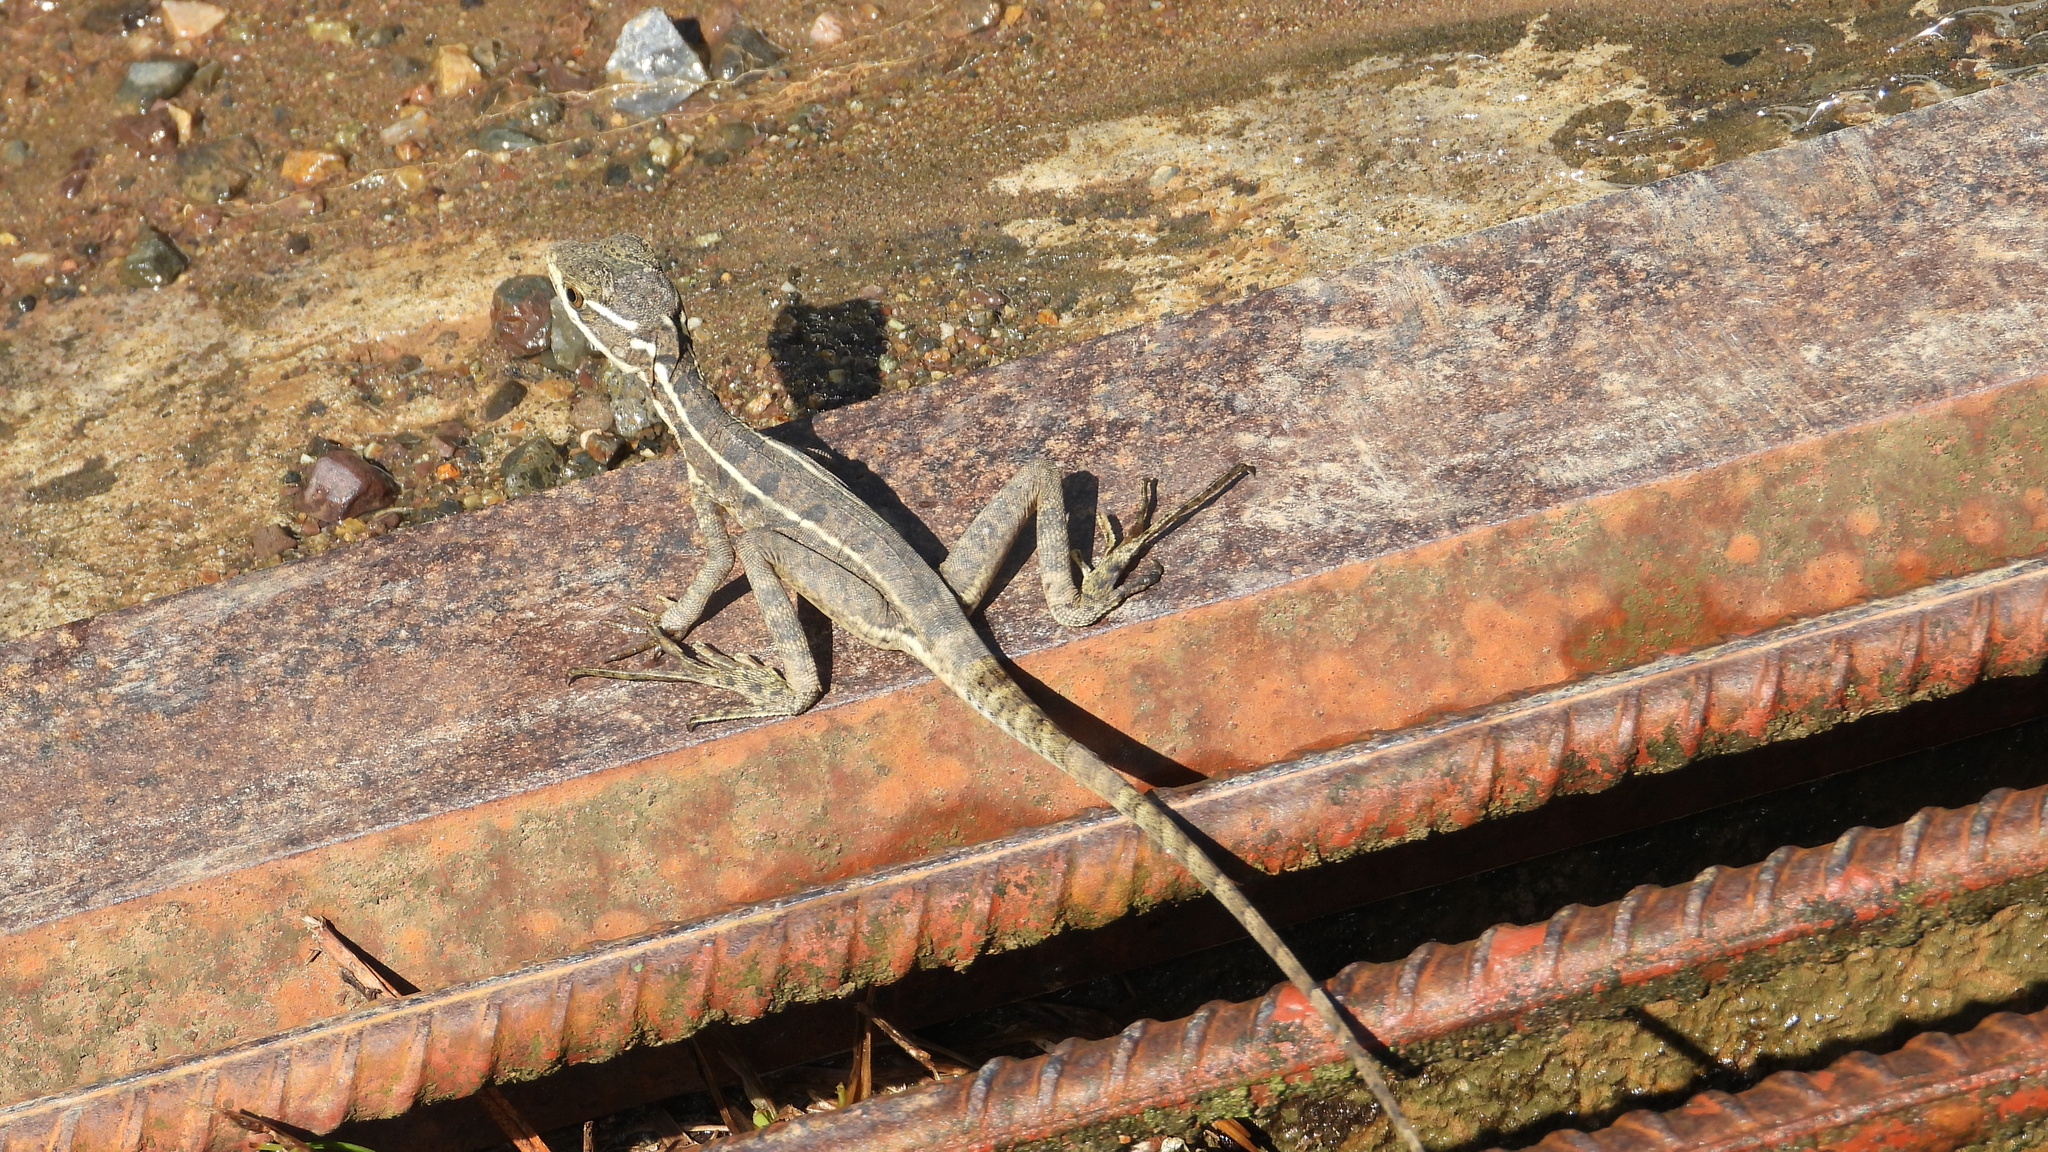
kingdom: Animalia
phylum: Chordata
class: Squamata
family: Corytophanidae
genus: Basiliscus
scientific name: Basiliscus basiliscus
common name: Common basilisk
